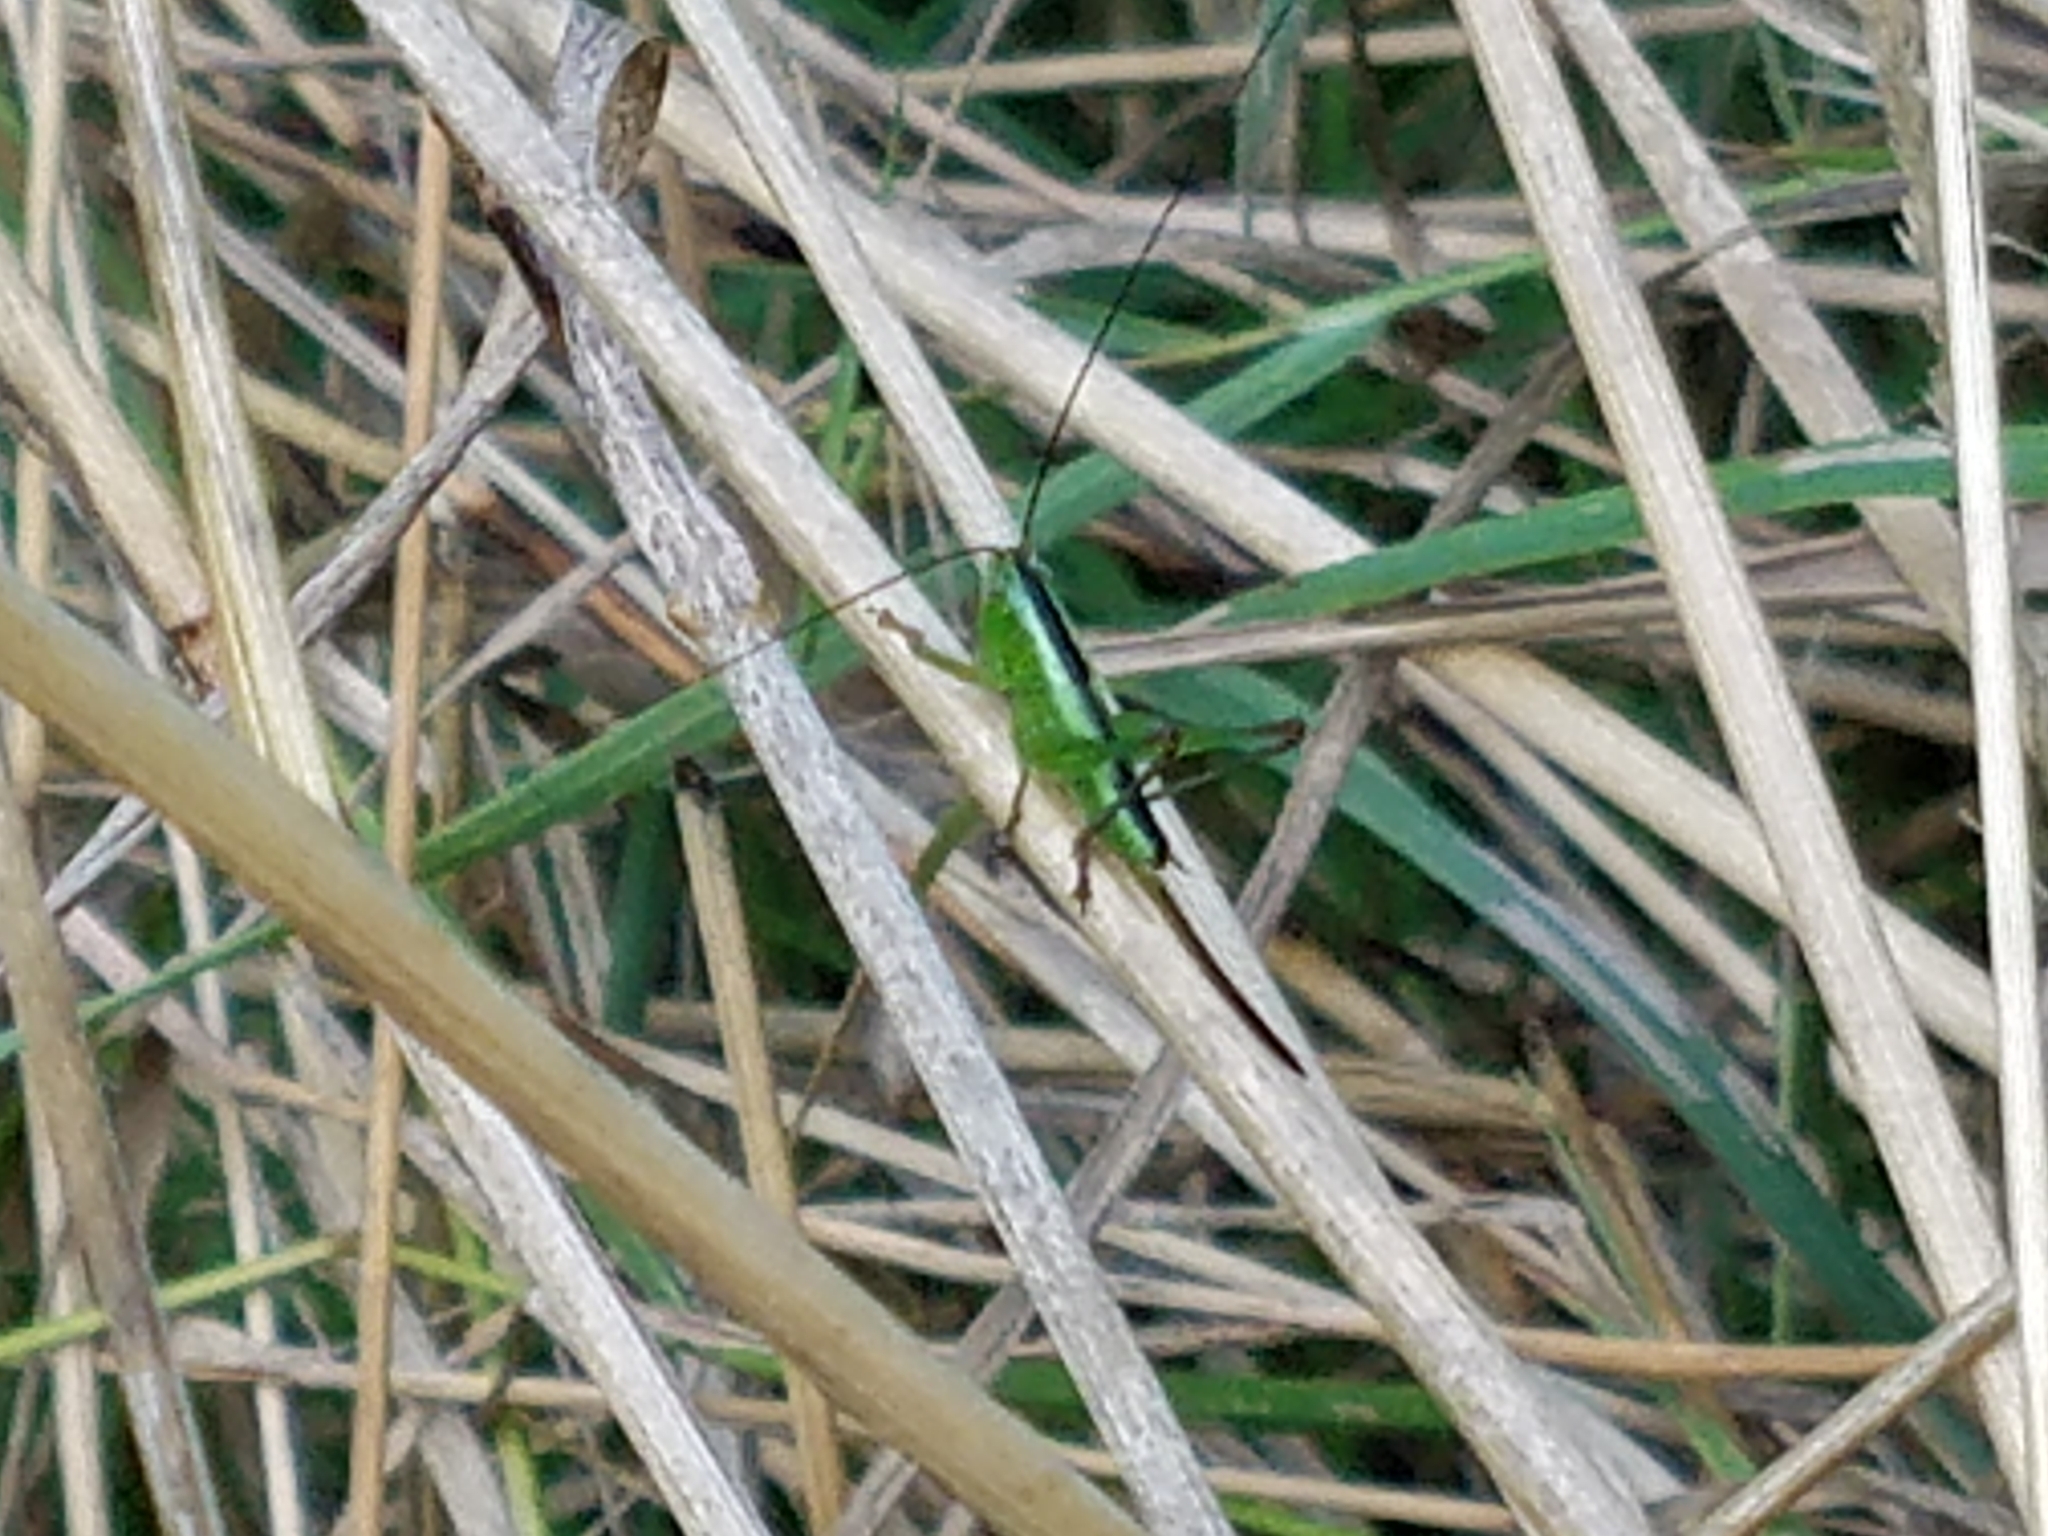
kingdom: Animalia
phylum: Arthropoda
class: Insecta
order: Orthoptera
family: Tettigoniidae
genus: Conocephalus
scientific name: Conocephalus fuscus
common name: Long-winged conehead
